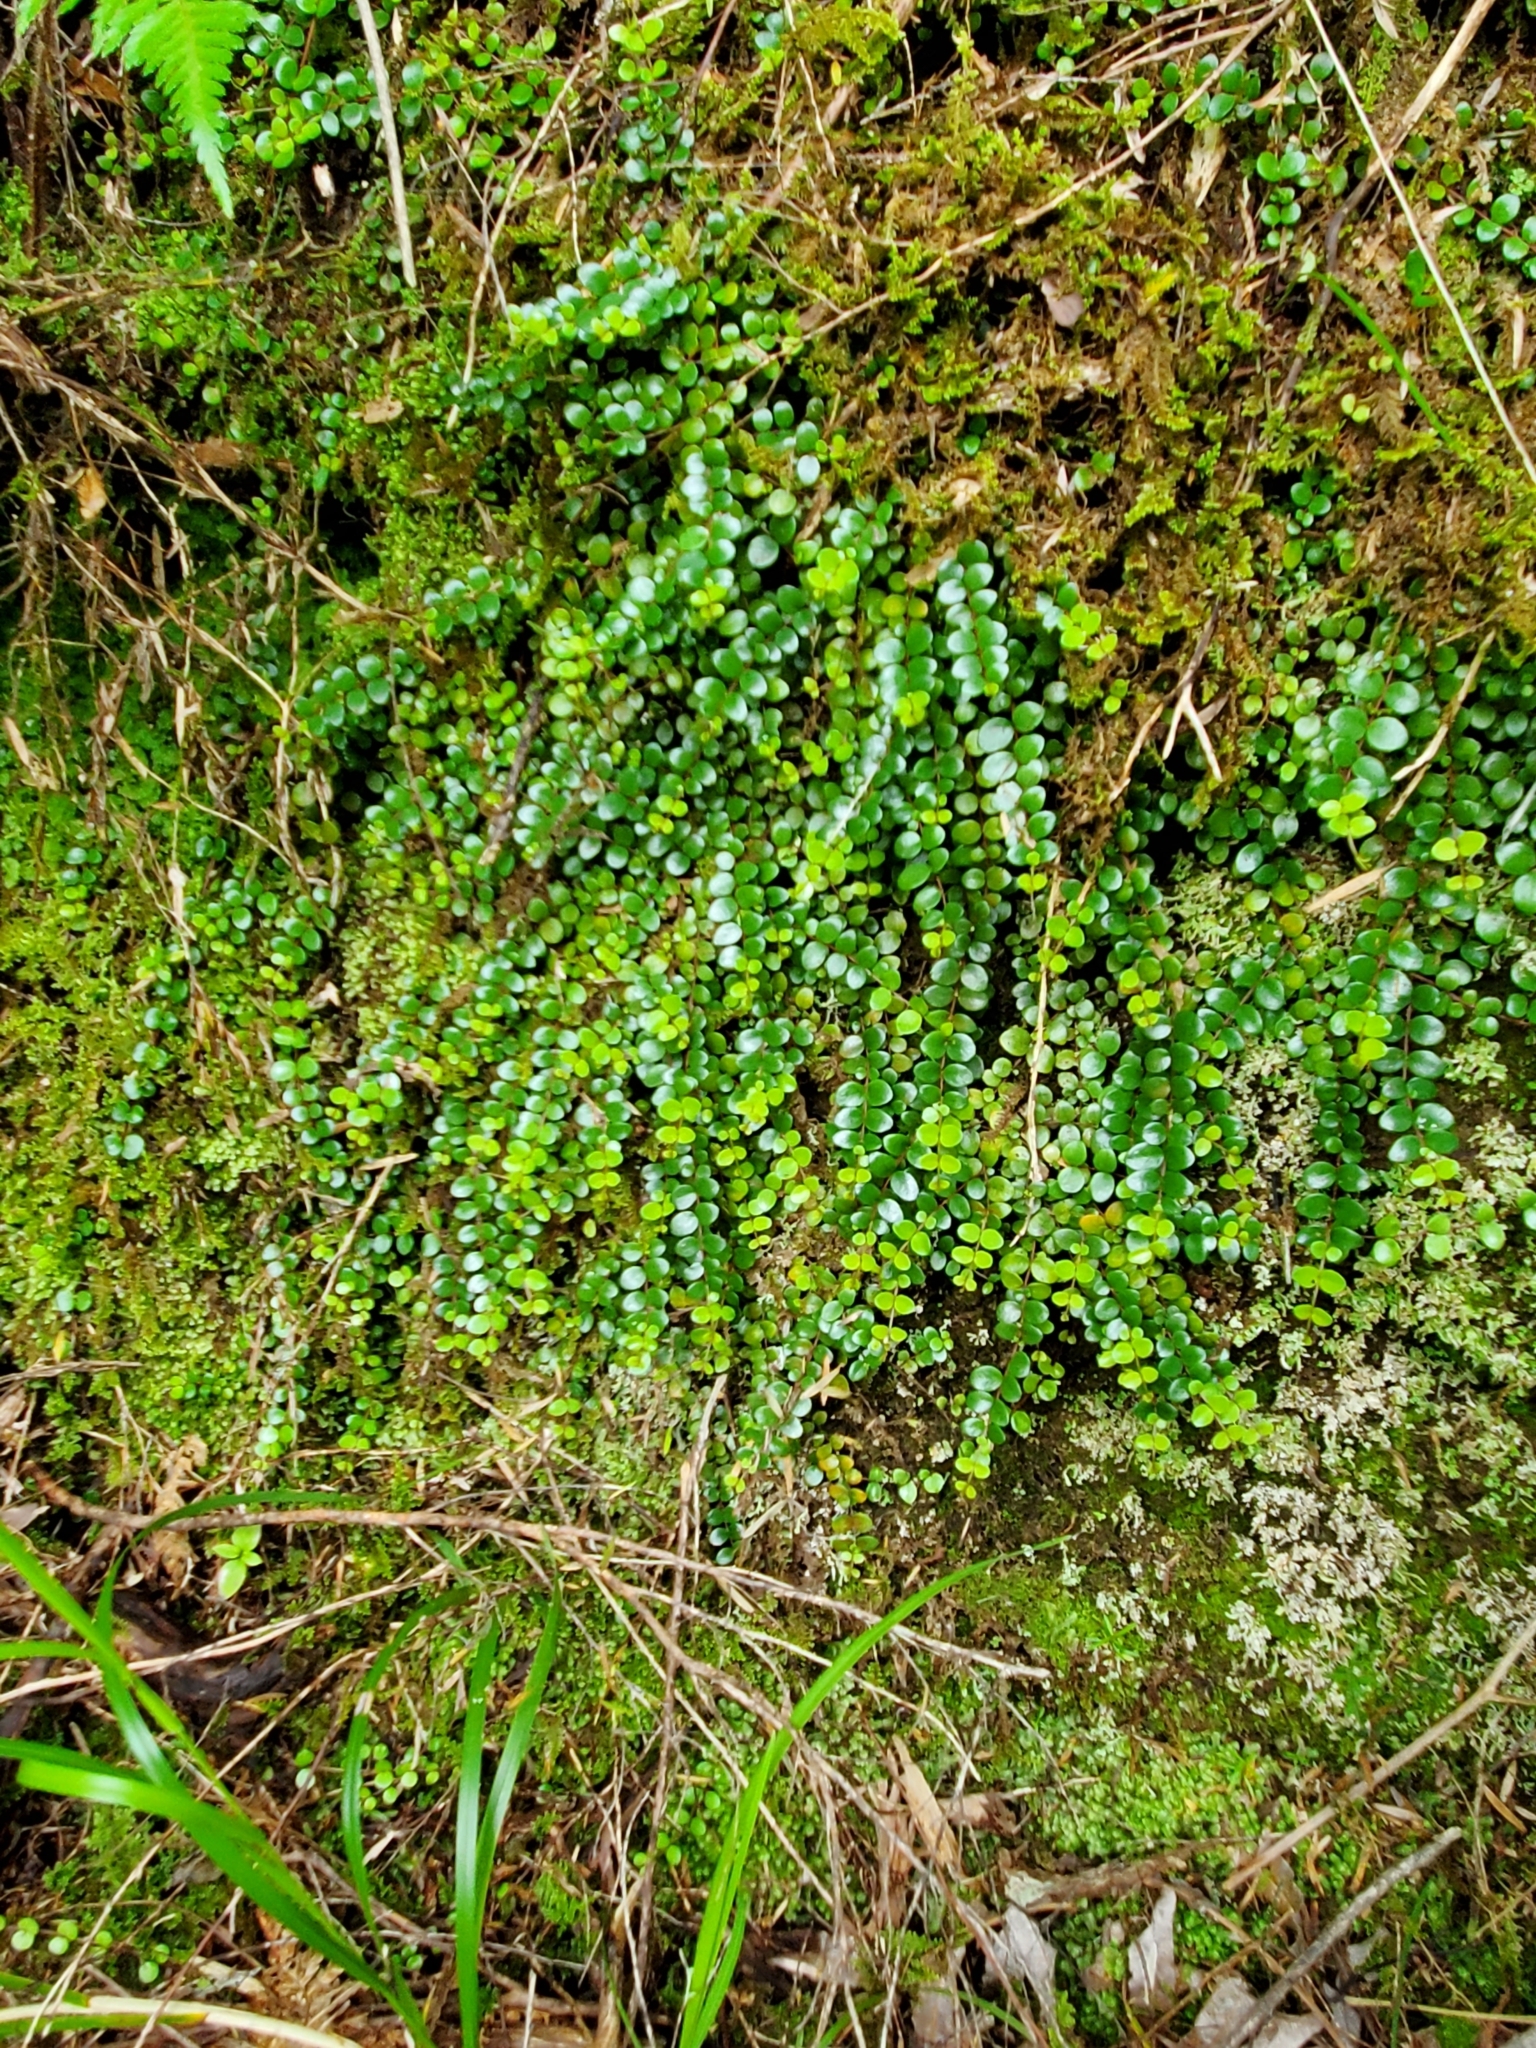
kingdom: Plantae
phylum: Tracheophyta
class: Magnoliopsida
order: Myrtales
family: Myrtaceae
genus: Metrosideros
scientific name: Metrosideros perforata
